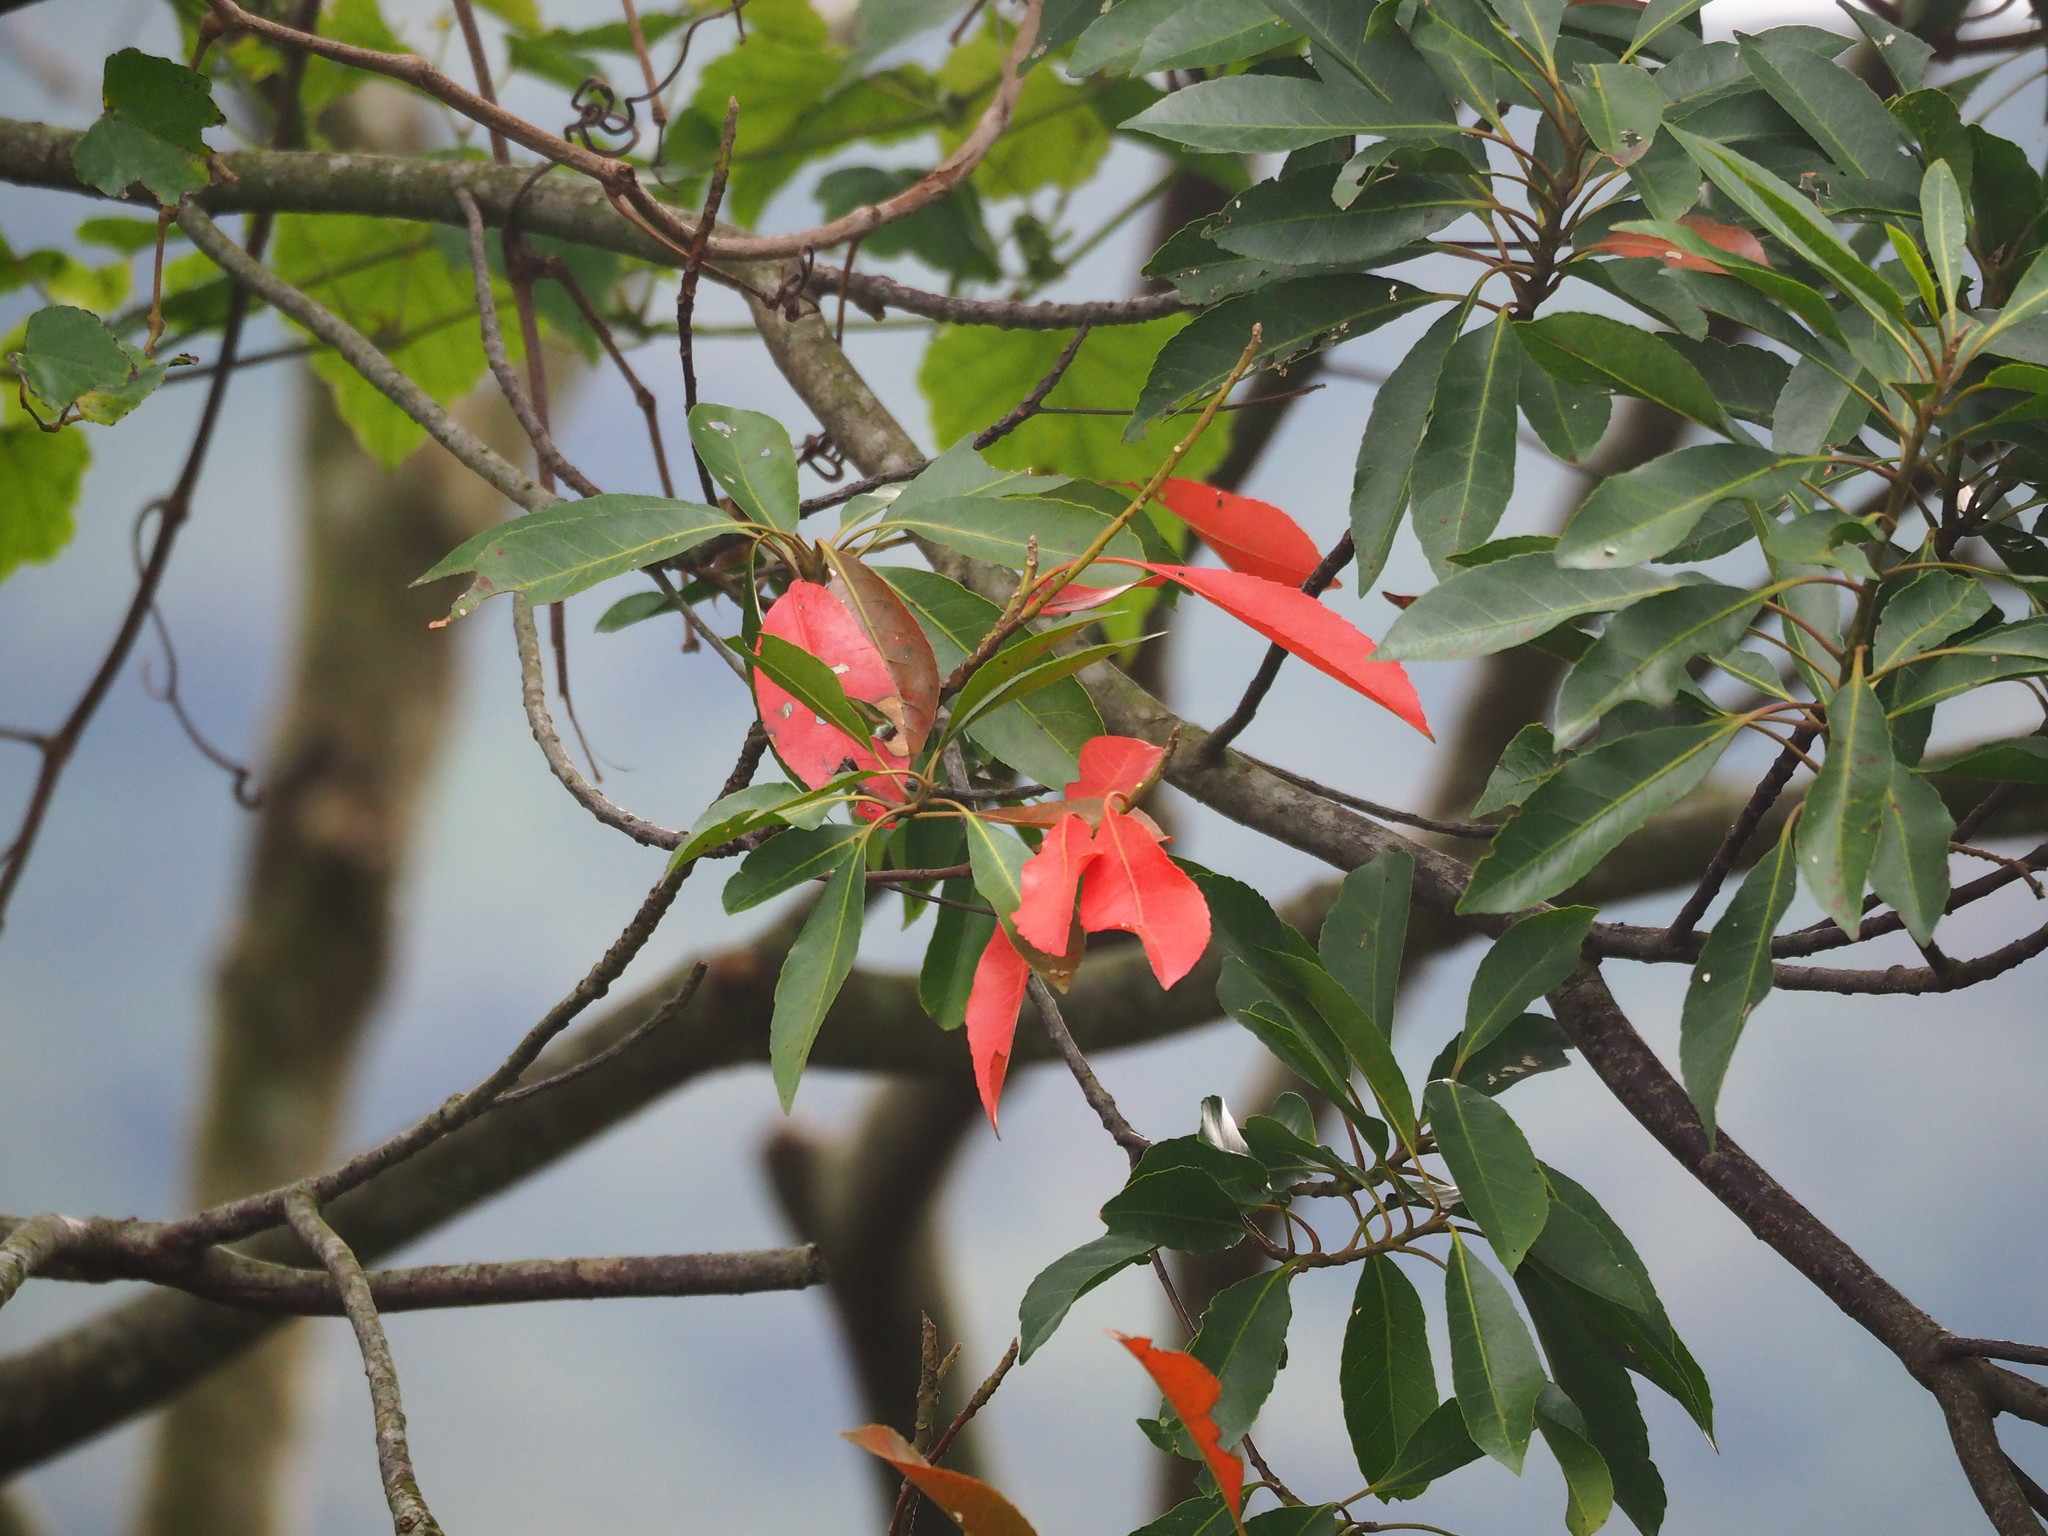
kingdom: Plantae
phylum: Tracheophyta
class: Magnoliopsida
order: Oxalidales
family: Elaeocarpaceae
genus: Elaeocarpus
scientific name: Elaeocarpus decipiens
